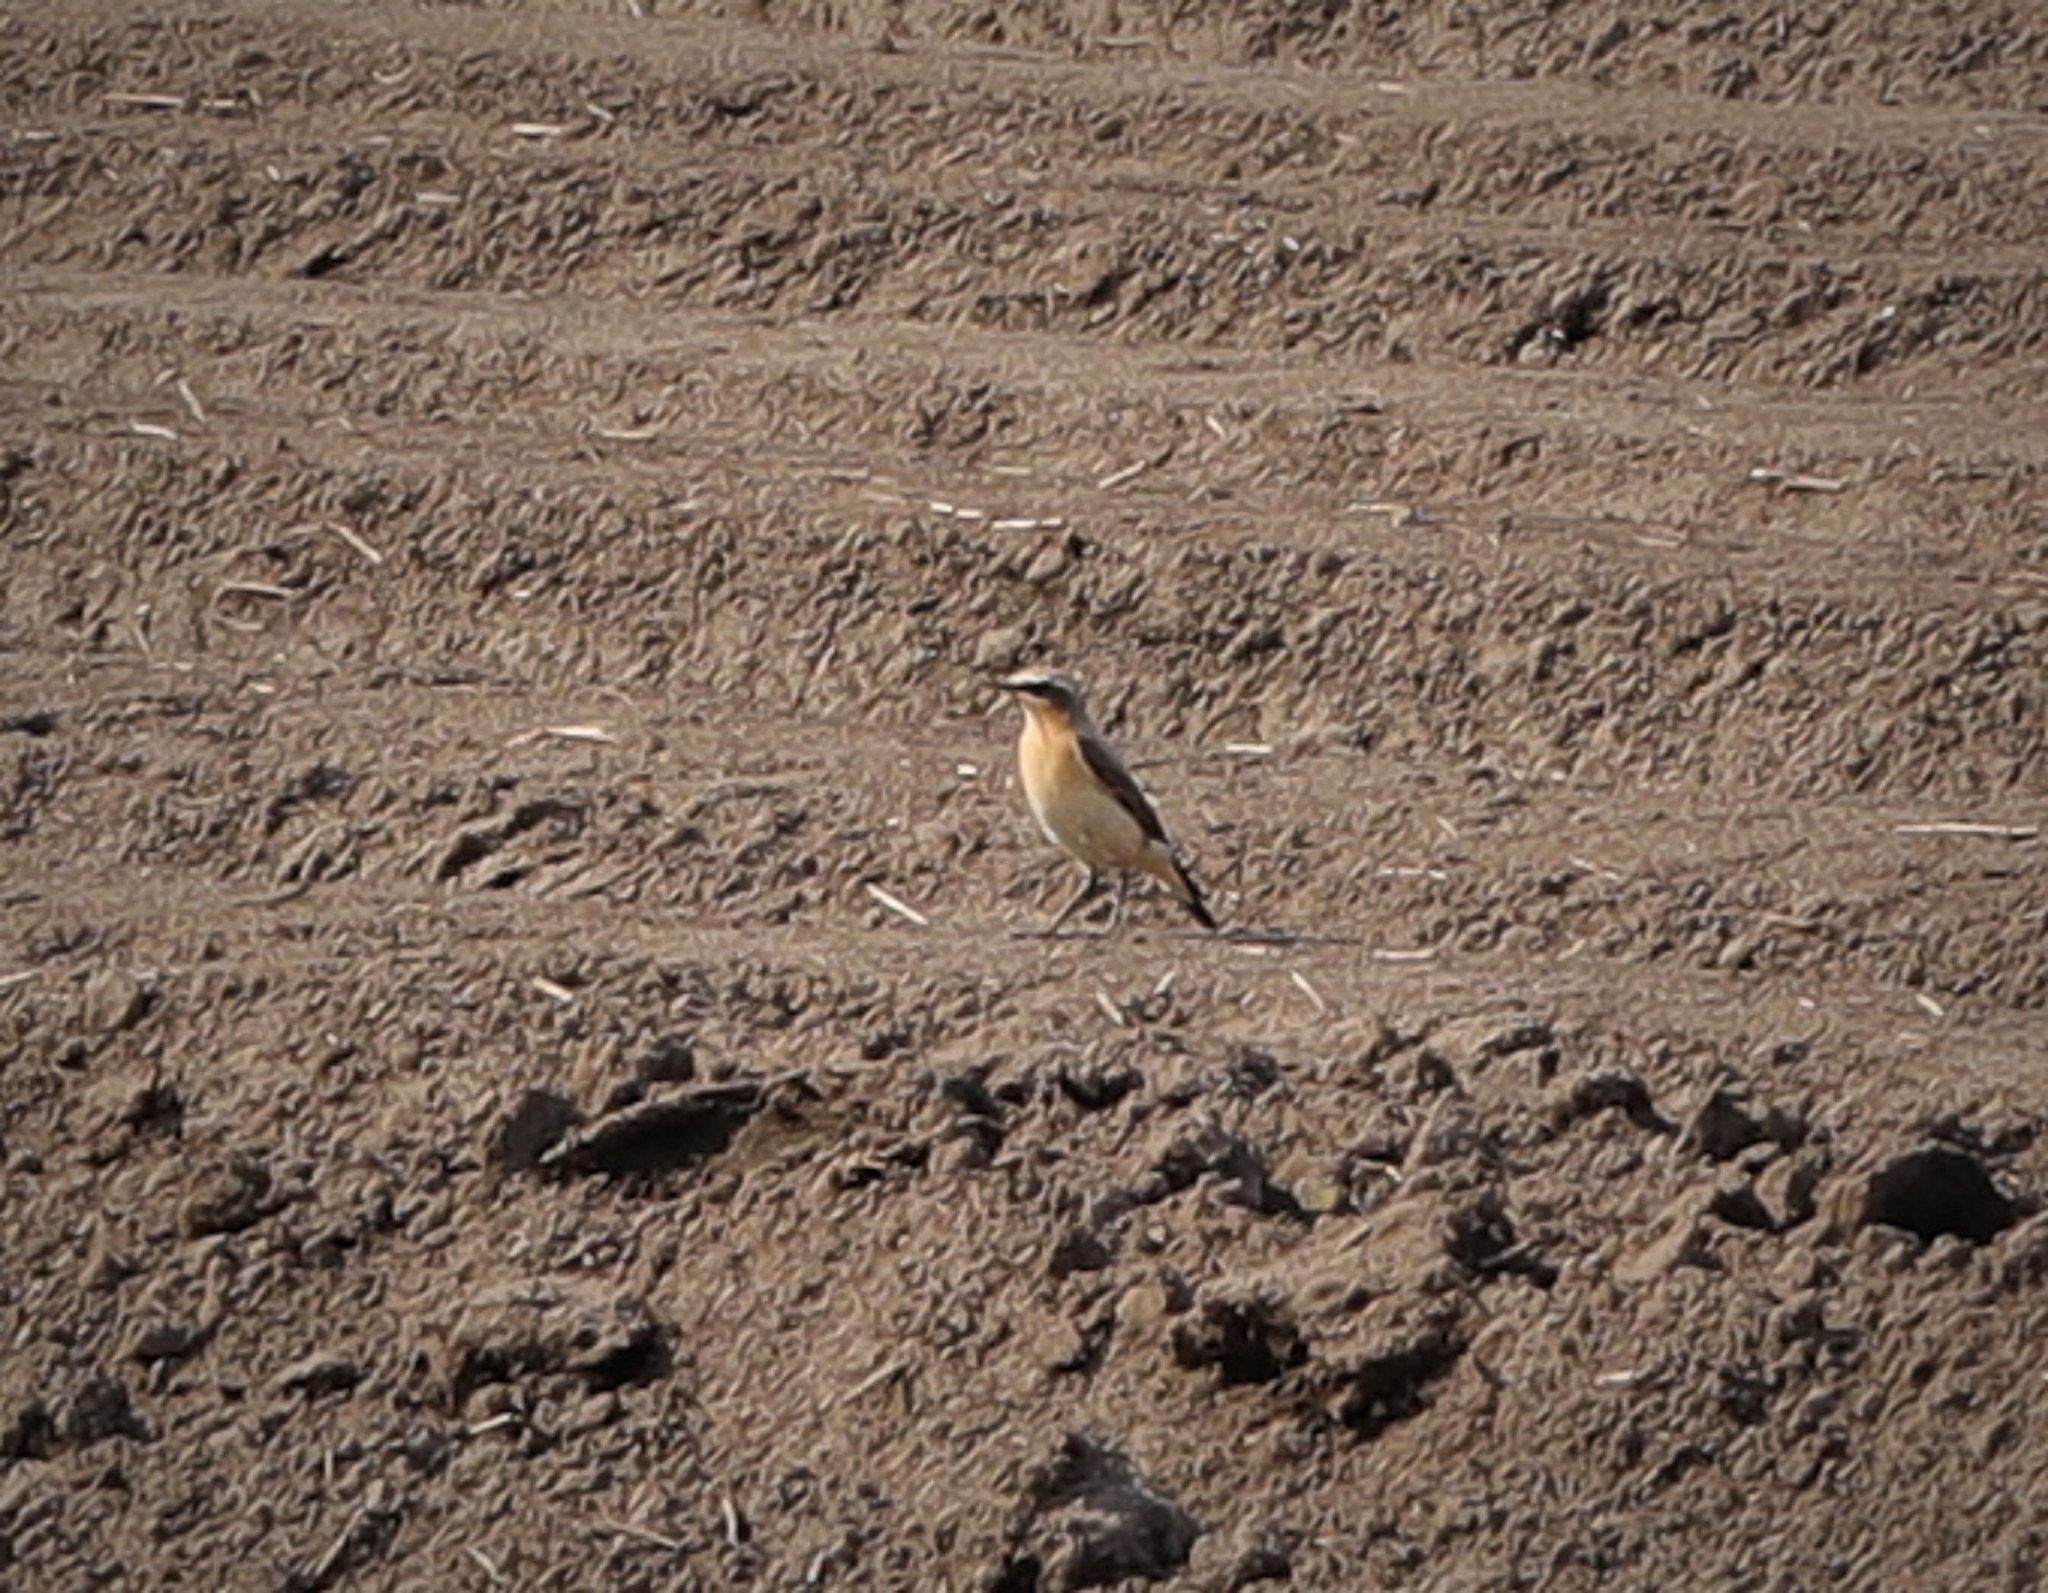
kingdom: Animalia
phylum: Chordata
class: Aves
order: Passeriformes
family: Muscicapidae
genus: Oenanthe
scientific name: Oenanthe oenanthe
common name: Northern wheatear
